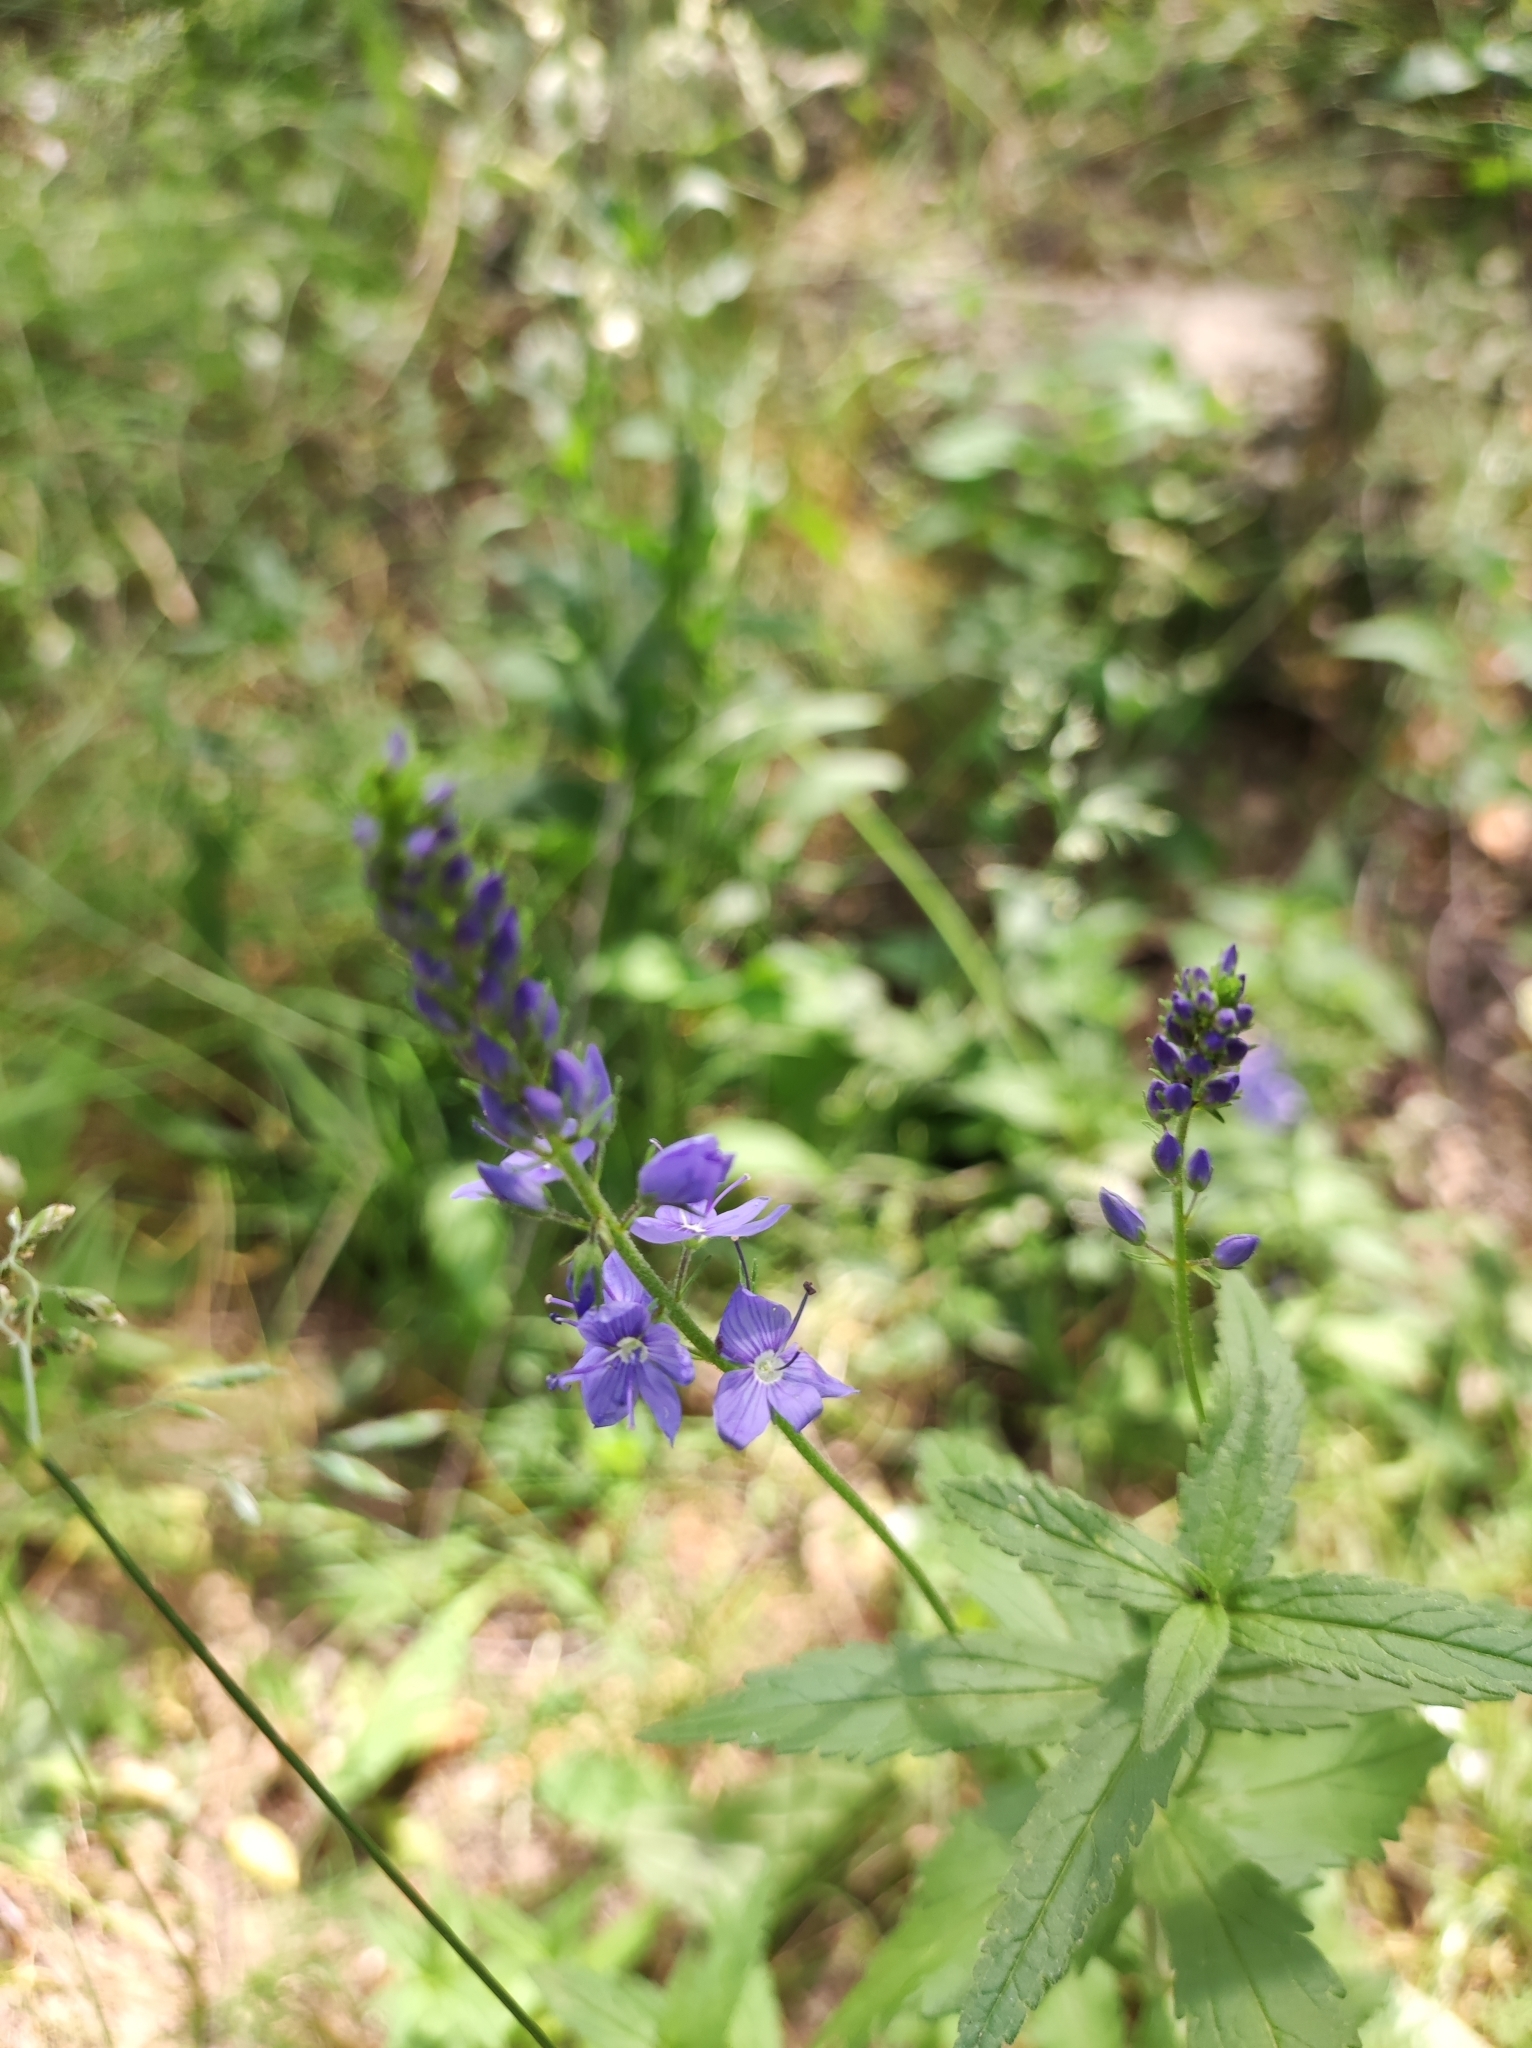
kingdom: Plantae
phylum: Tracheophyta
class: Magnoliopsida
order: Lamiales
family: Plantaginaceae
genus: Veronica
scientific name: Veronica teucrium
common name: Large speedwell
